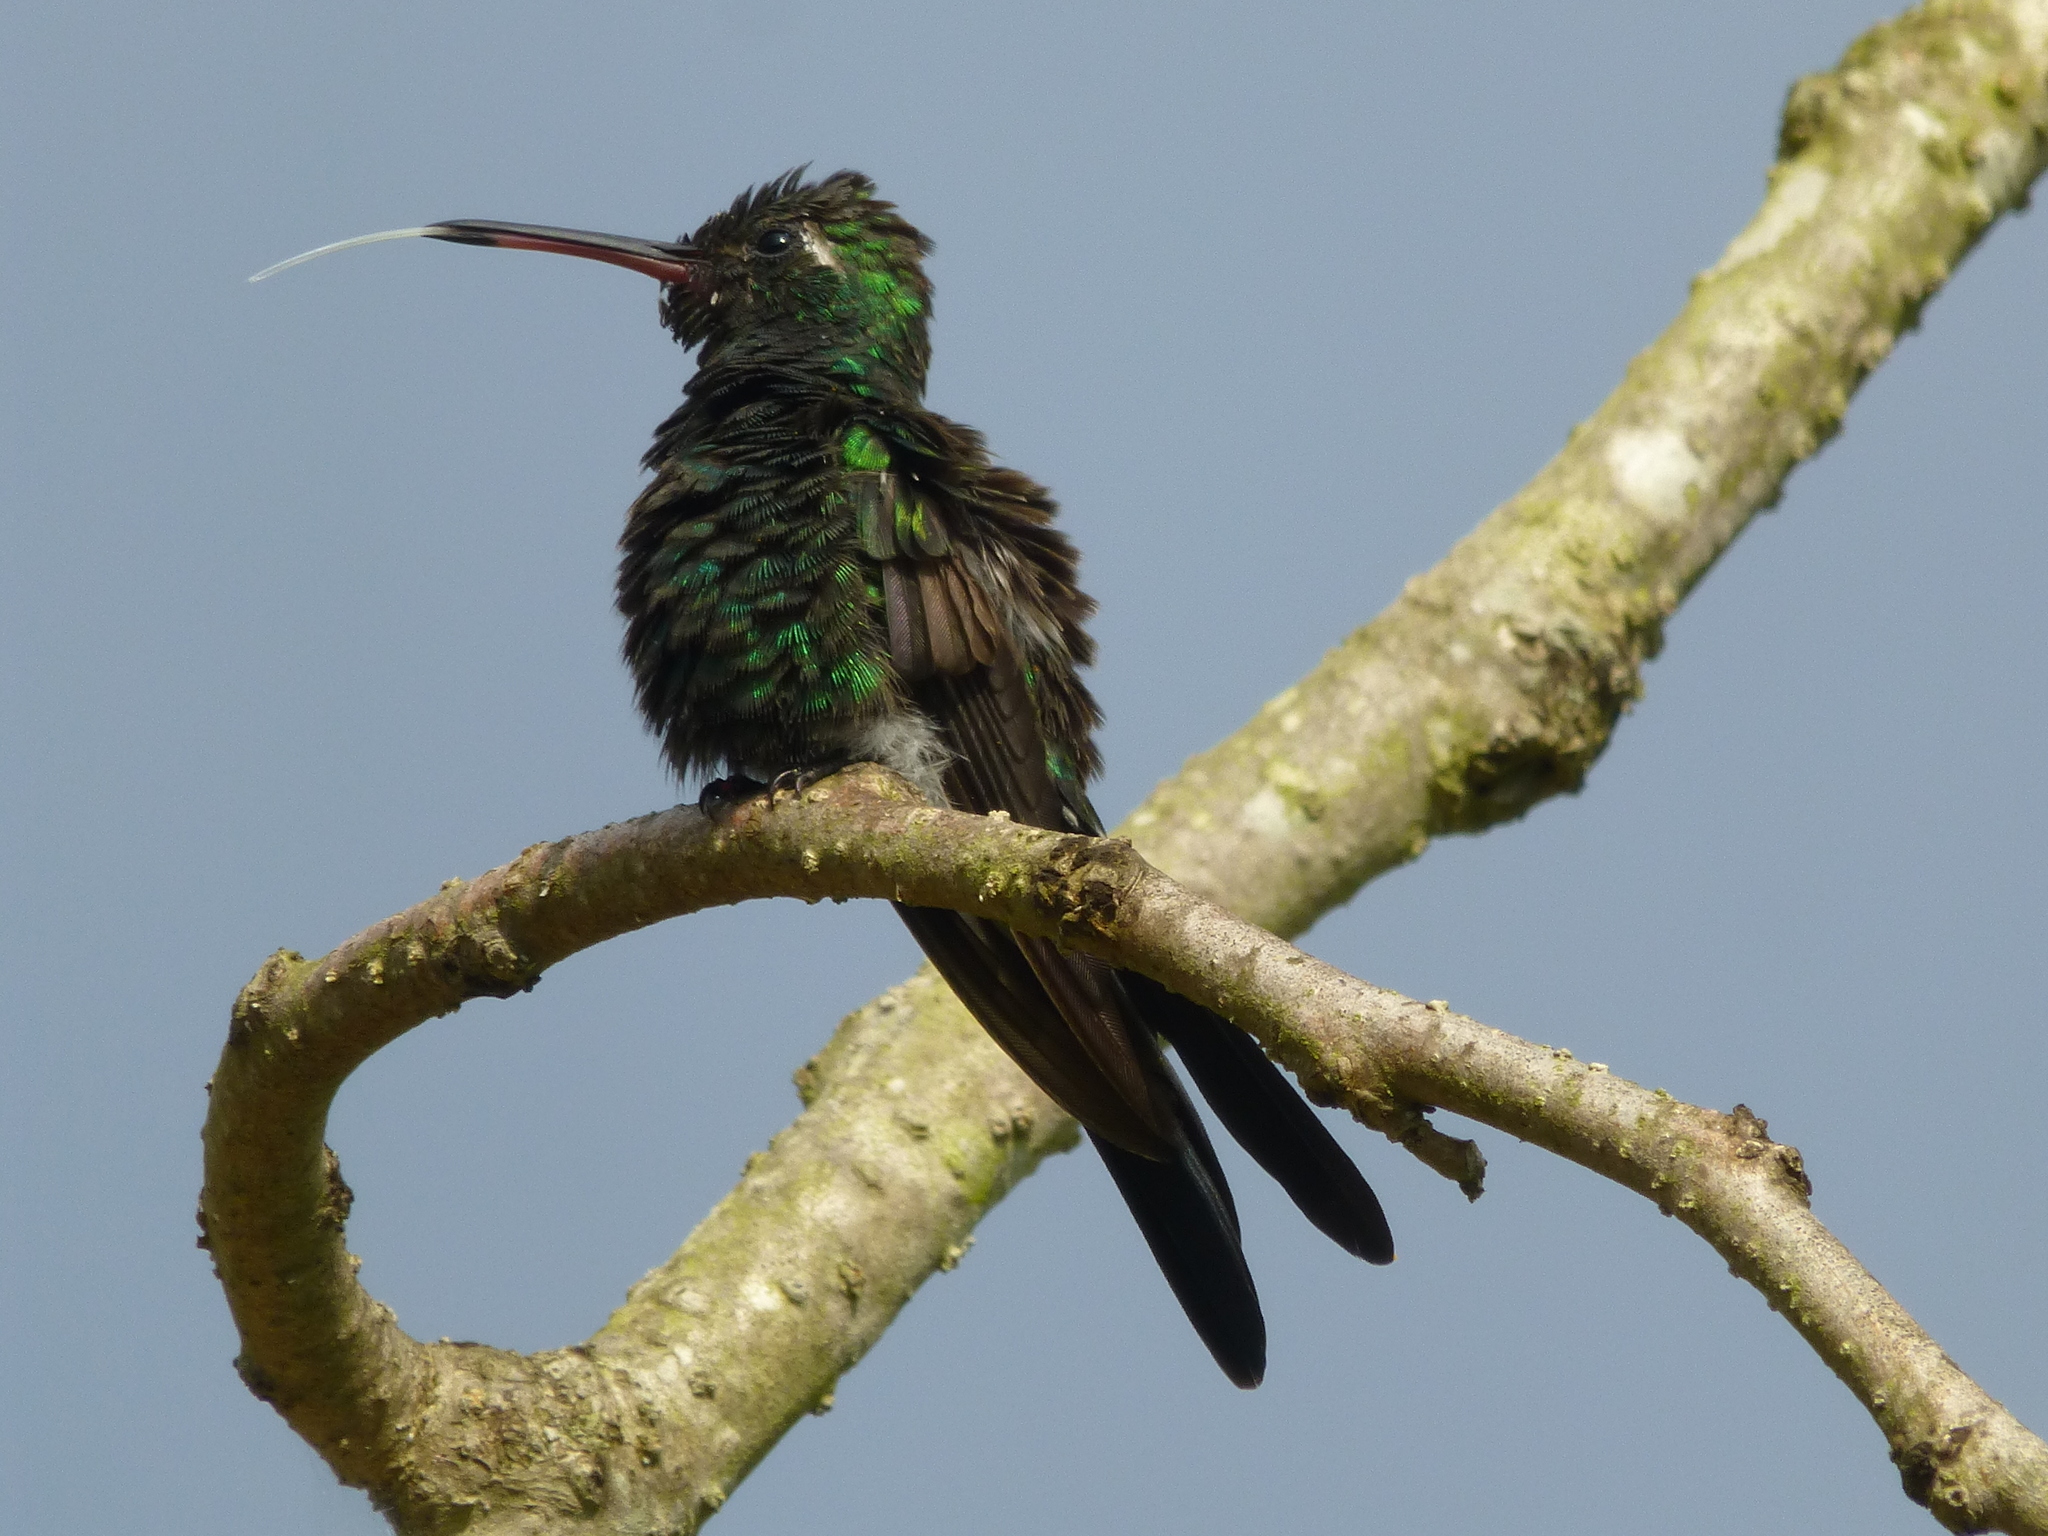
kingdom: Animalia
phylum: Chordata
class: Aves
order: Apodiformes
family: Trochilidae
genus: Riccordia
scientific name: Riccordia ricordii
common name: Cuban emerald
